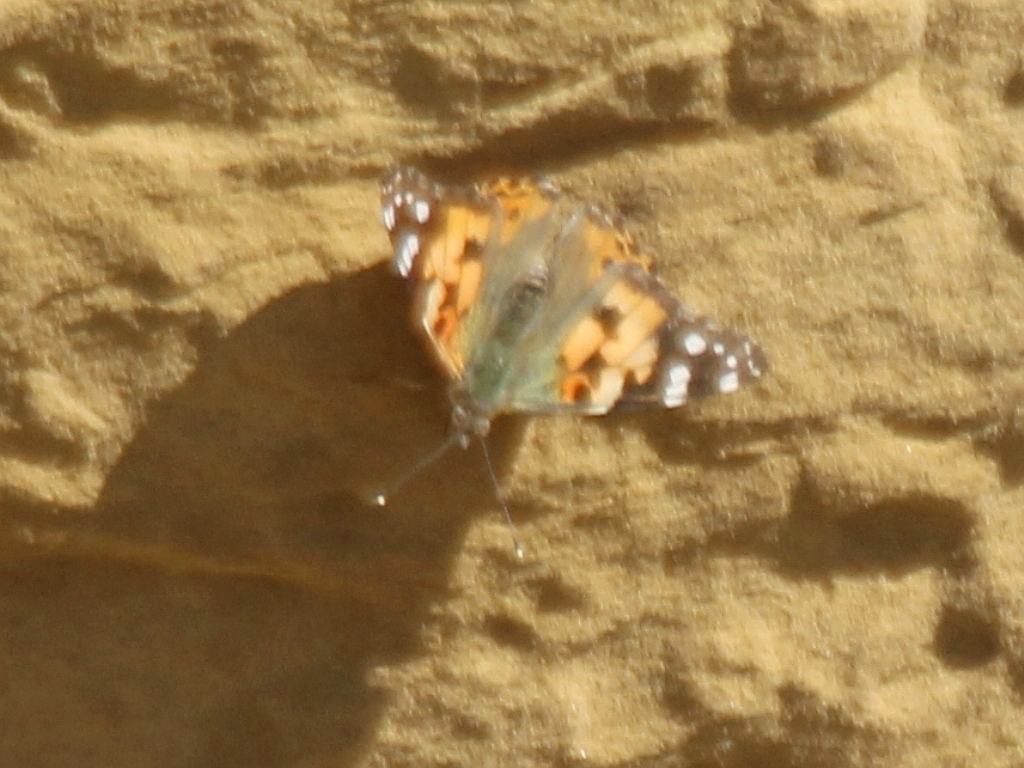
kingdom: Animalia
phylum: Arthropoda
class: Insecta
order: Lepidoptera
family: Nymphalidae
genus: Vanessa
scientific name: Vanessa cardui
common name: Painted lady
